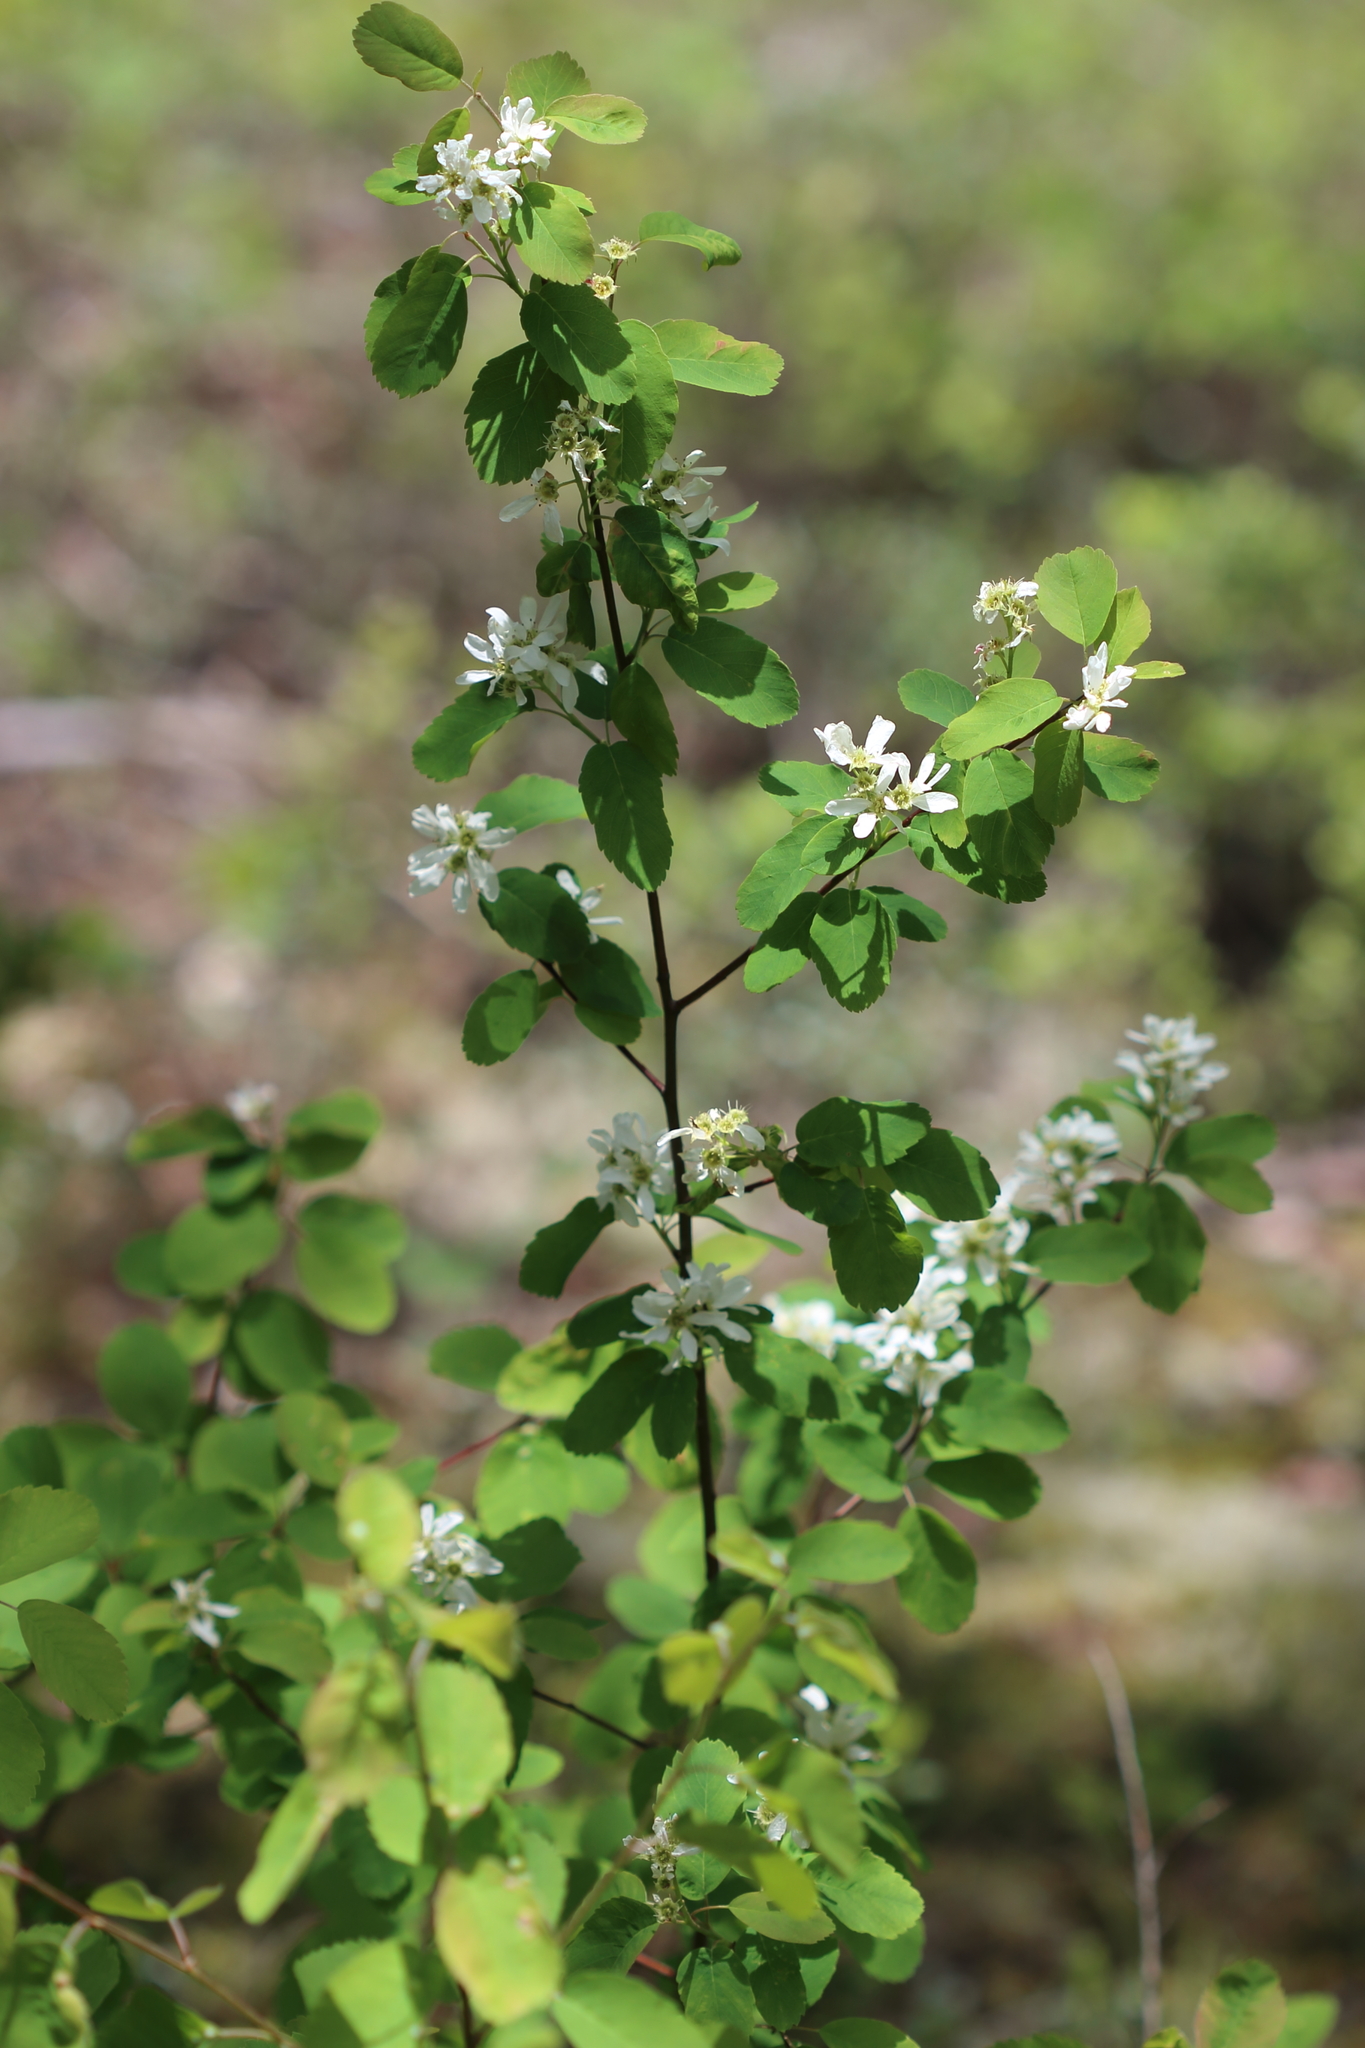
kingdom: Plantae
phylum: Tracheophyta
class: Magnoliopsida
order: Rosales
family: Rosaceae
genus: Amelanchier
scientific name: Amelanchier alnifolia
